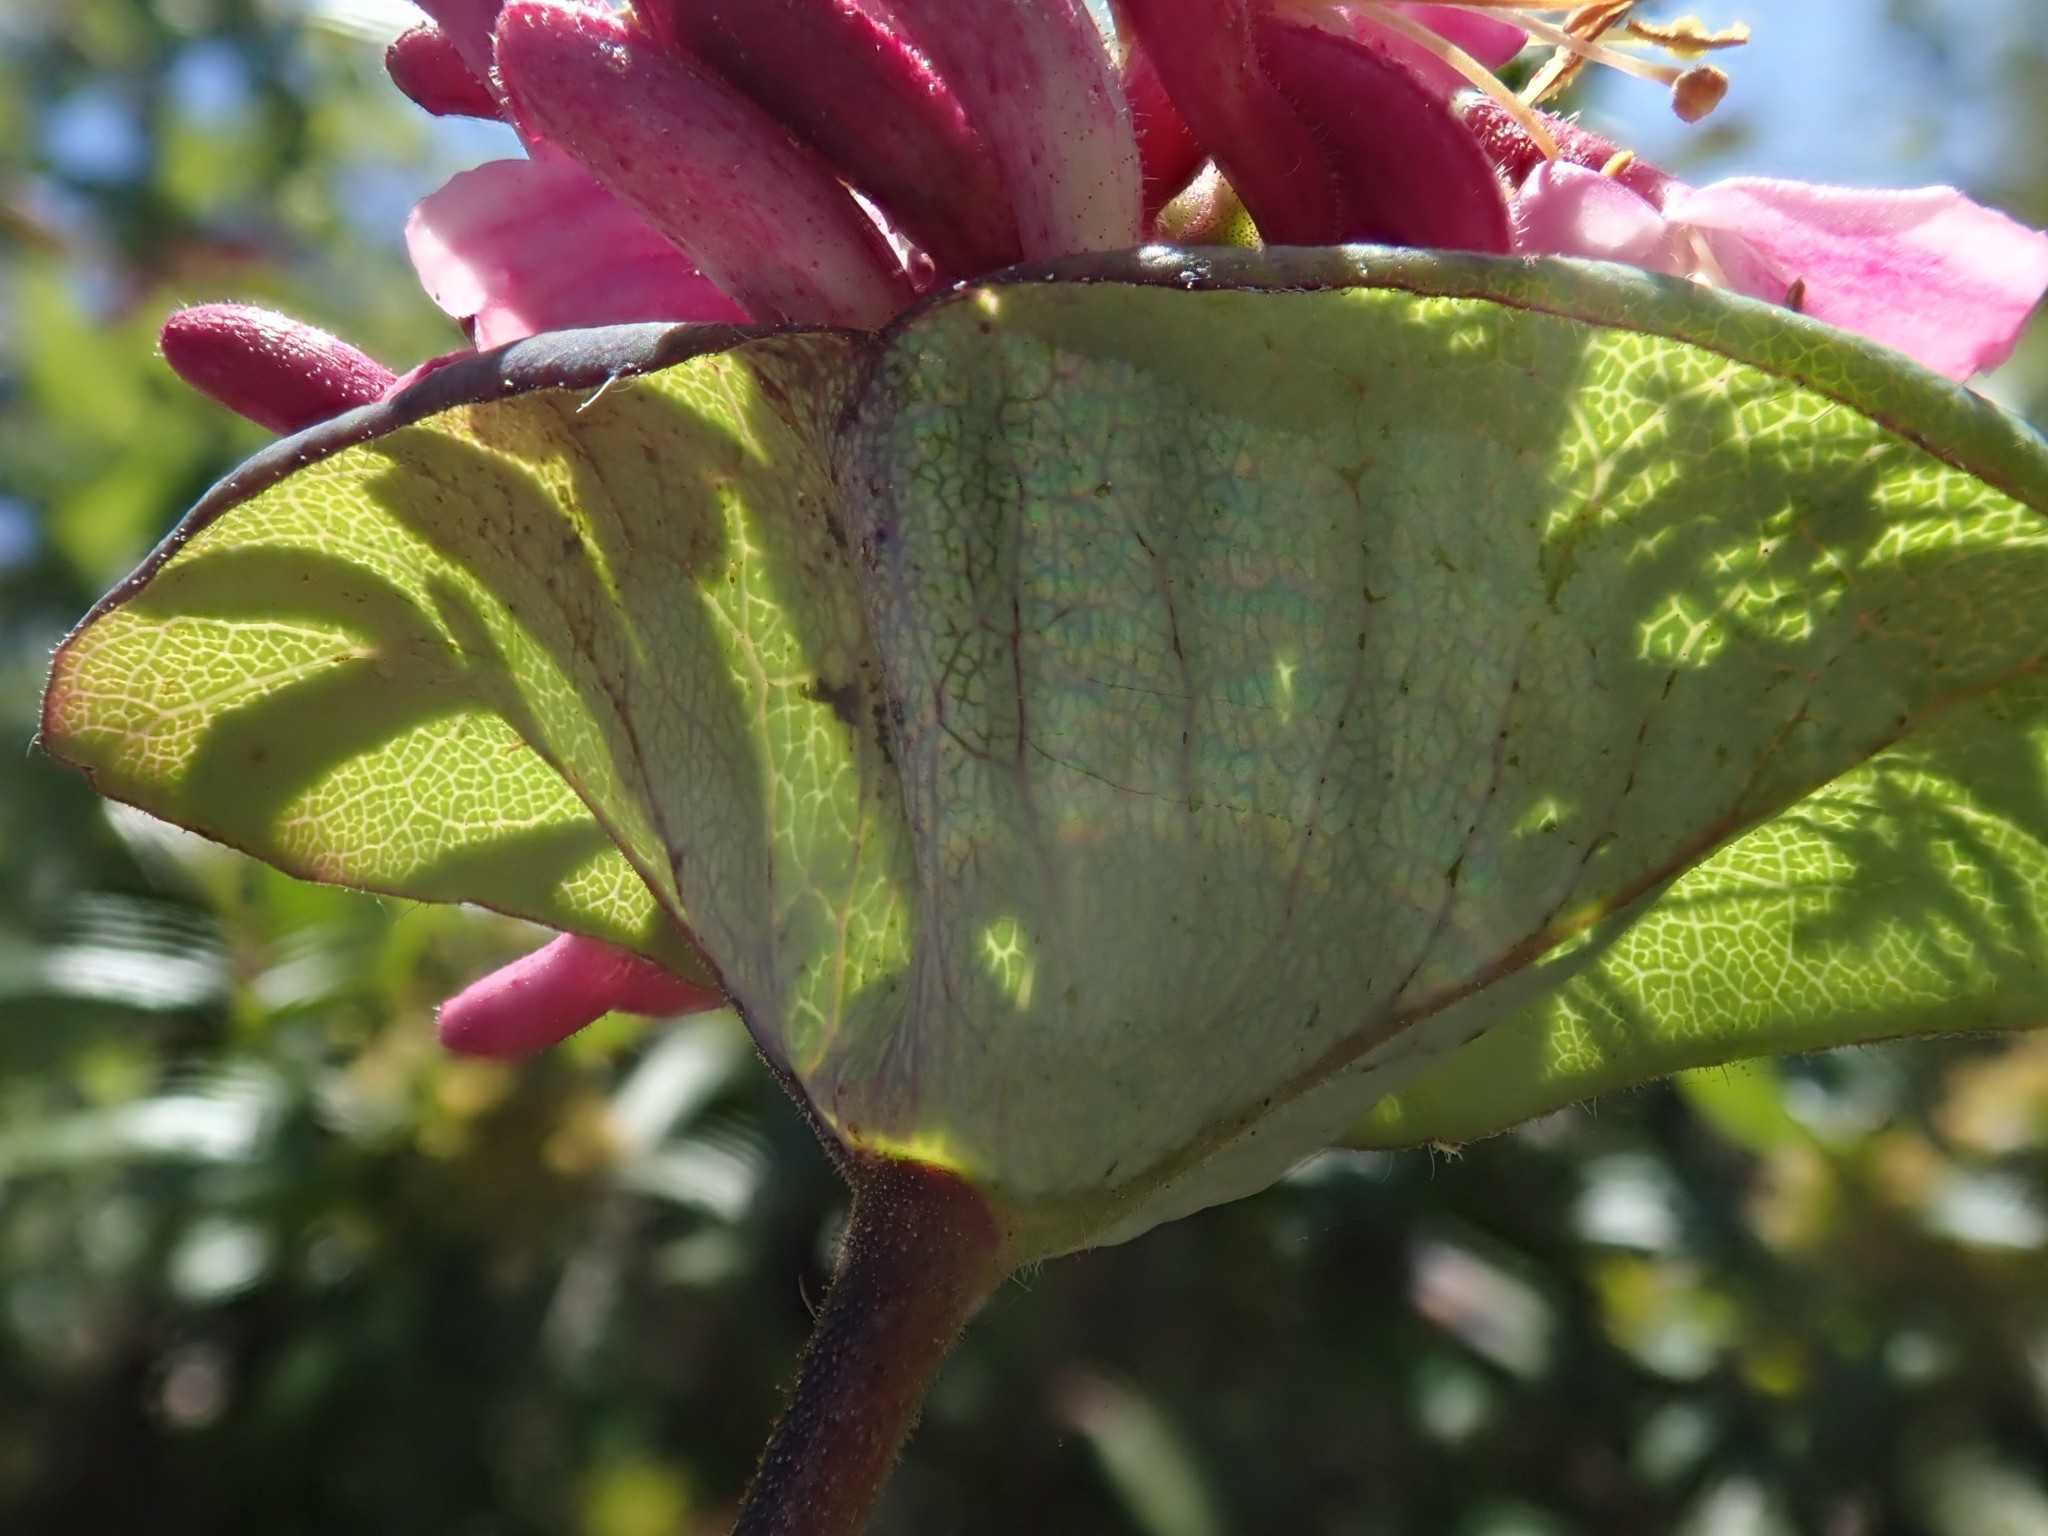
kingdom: Plantae
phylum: Tracheophyta
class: Magnoliopsida
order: Dipsacales
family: Caprifoliaceae
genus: Lonicera
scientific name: Lonicera hispidula
